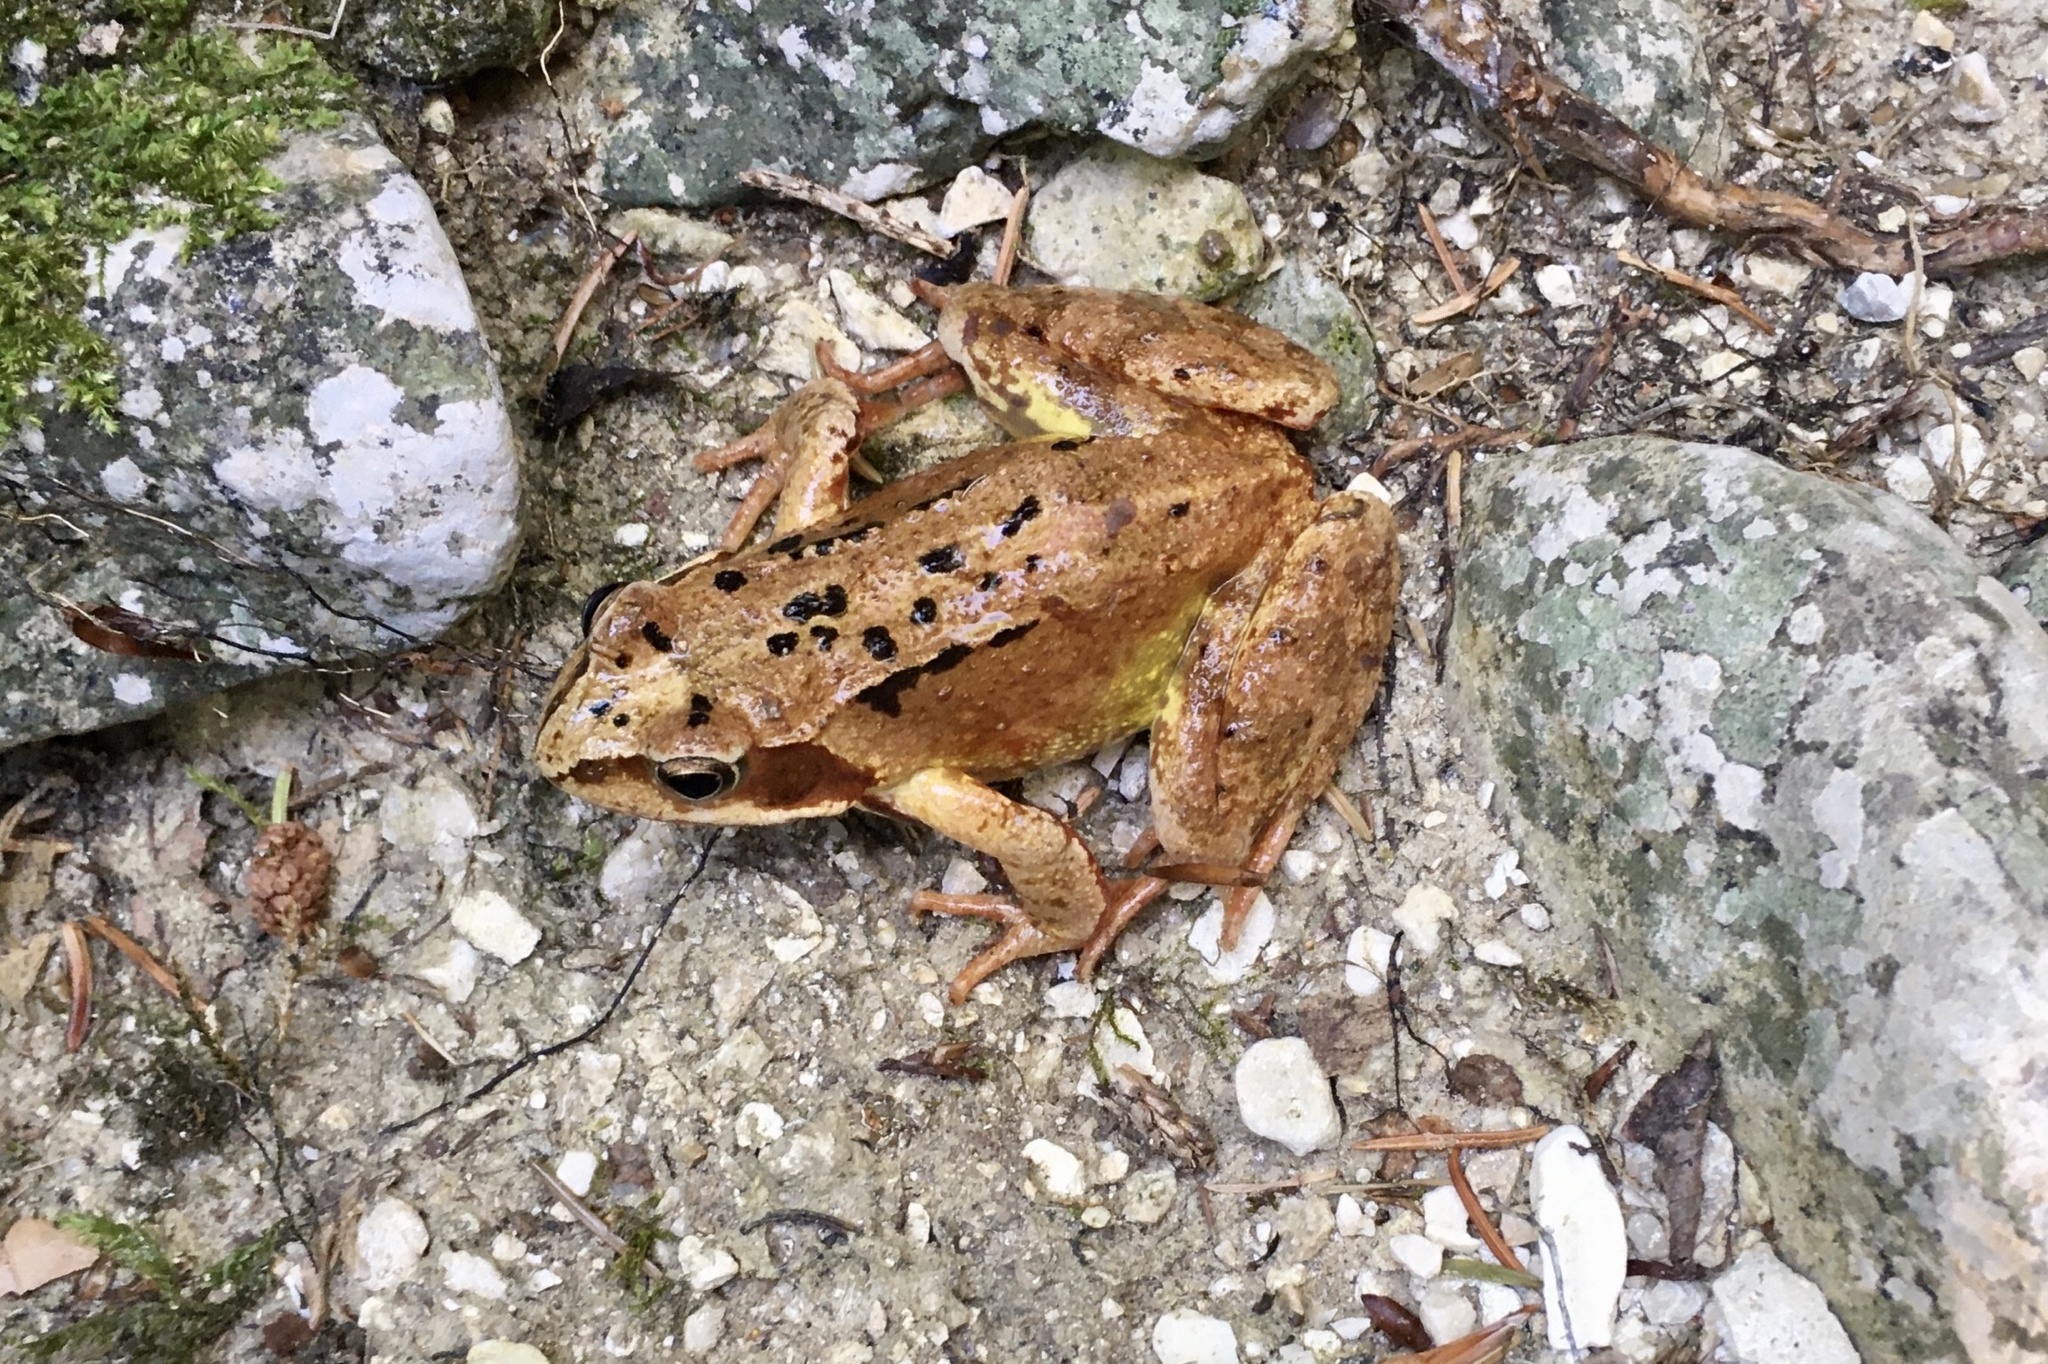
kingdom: Animalia
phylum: Chordata
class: Amphibia
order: Anura
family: Ranidae
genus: Rana
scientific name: Rana temporaria
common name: Common frog
